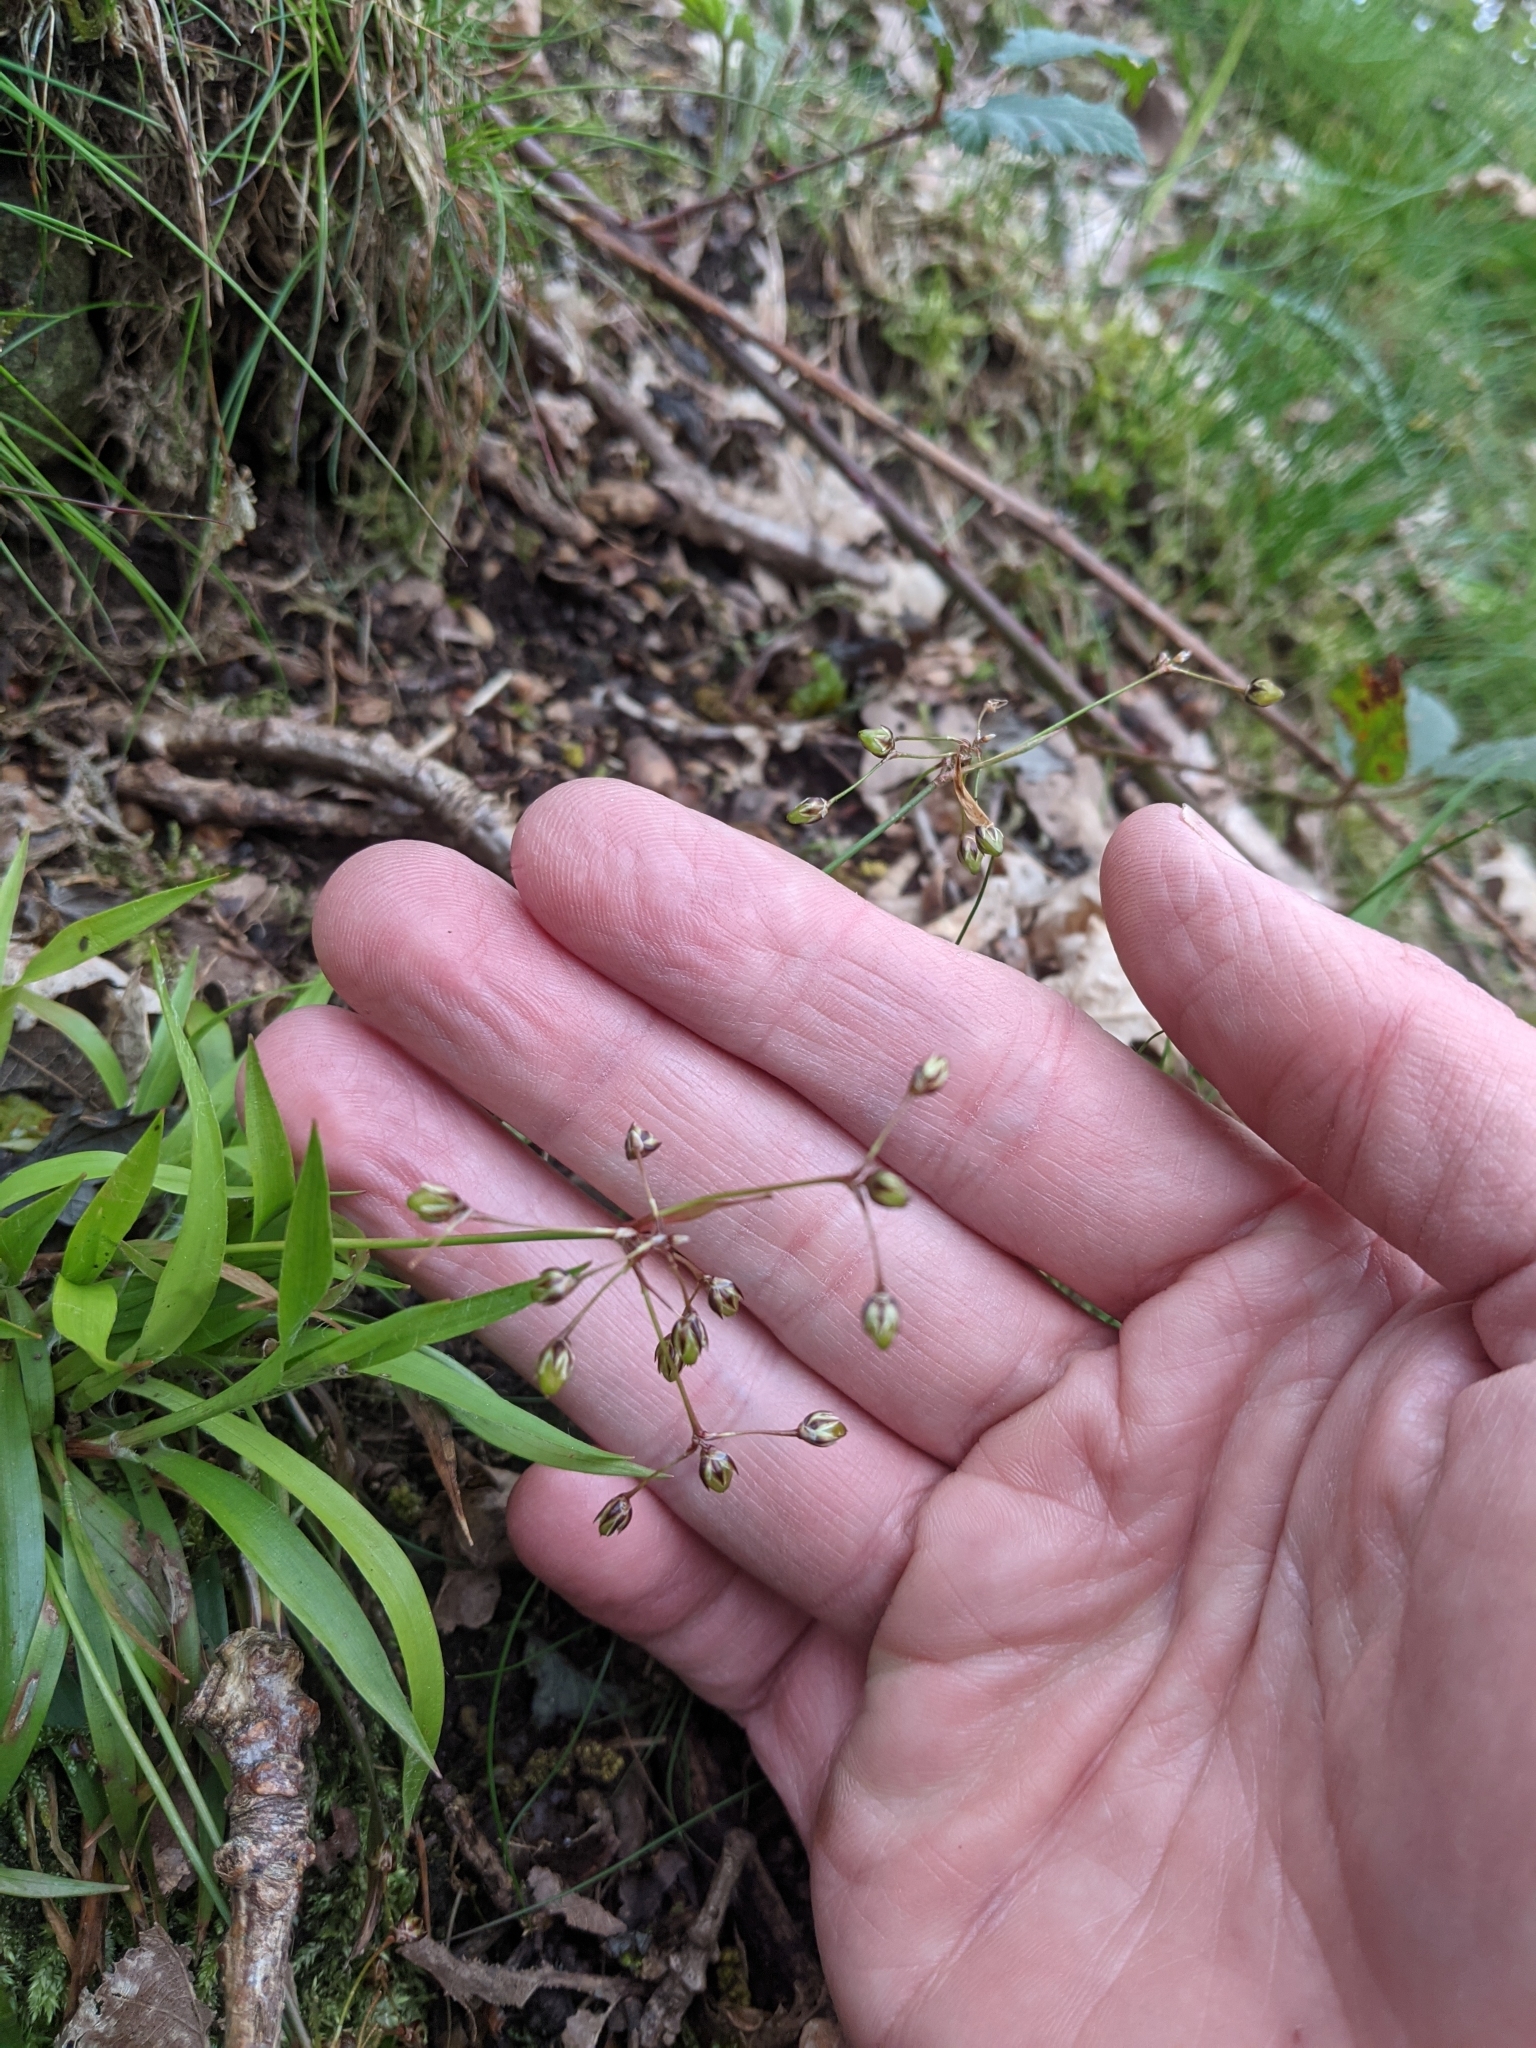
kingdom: Plantae
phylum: Tracheophyta
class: Liliopsida
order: Poales
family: Juncaceae
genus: Luzula
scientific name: Luzula pilosa
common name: Hairy wood-rush
